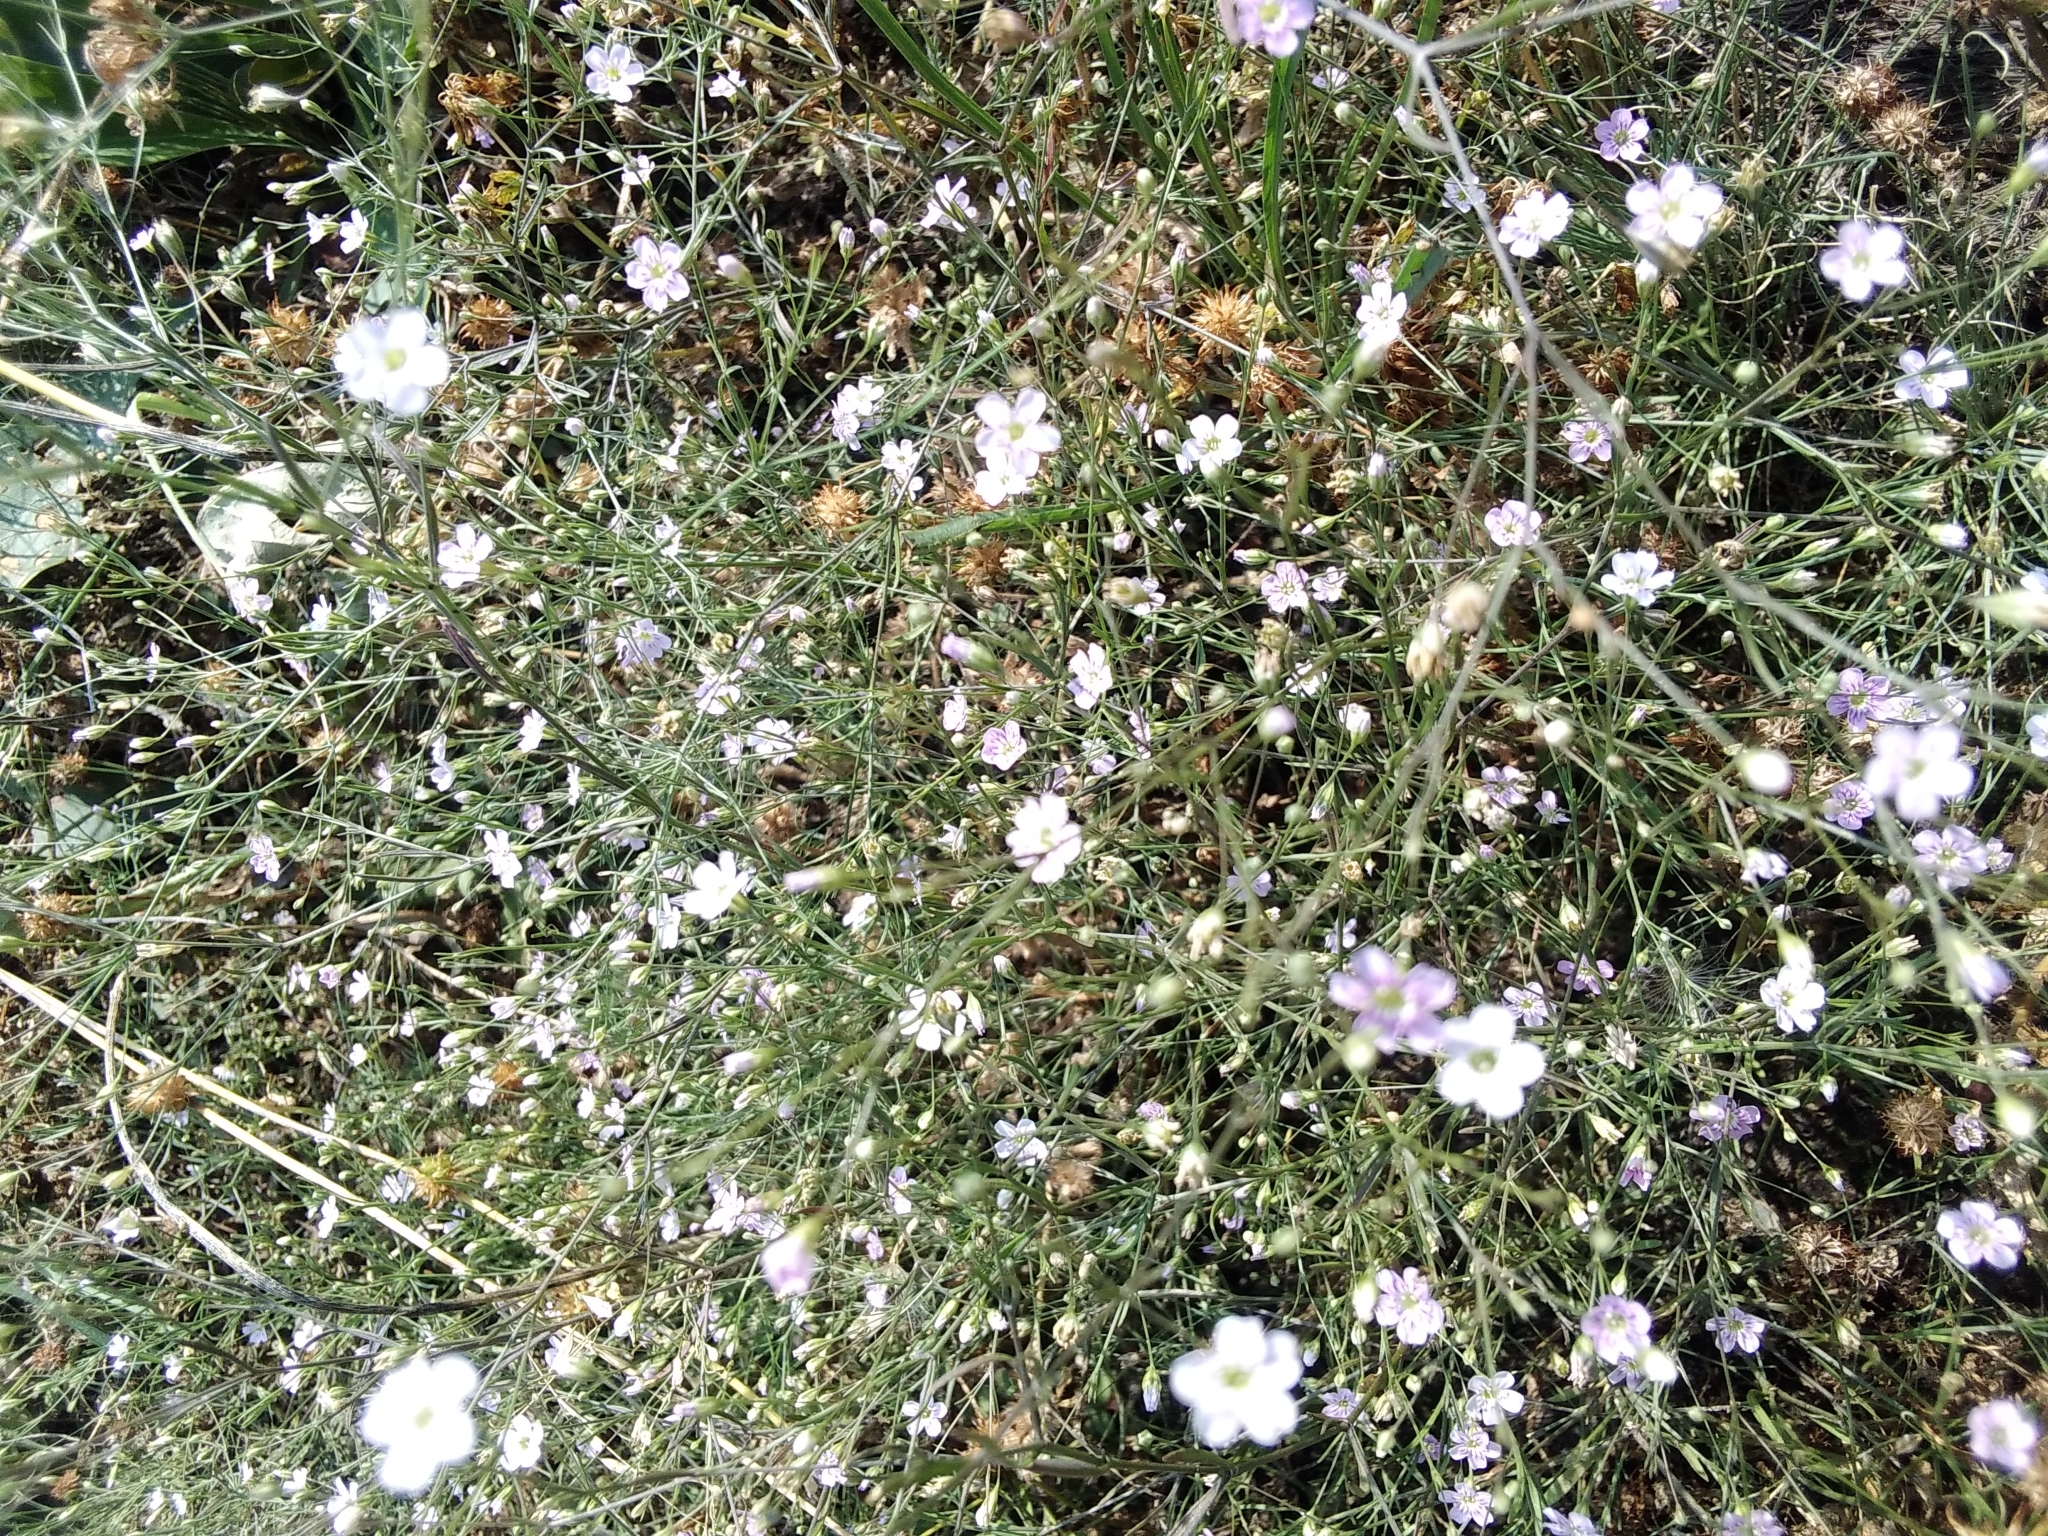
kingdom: Plantae
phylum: Tracheophyta
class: Magnoliopsida
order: Caryophyllales
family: Caryophyllaceae
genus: Psammophiliella
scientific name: Psammophiliella muralis
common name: Cushion baby's-breath
